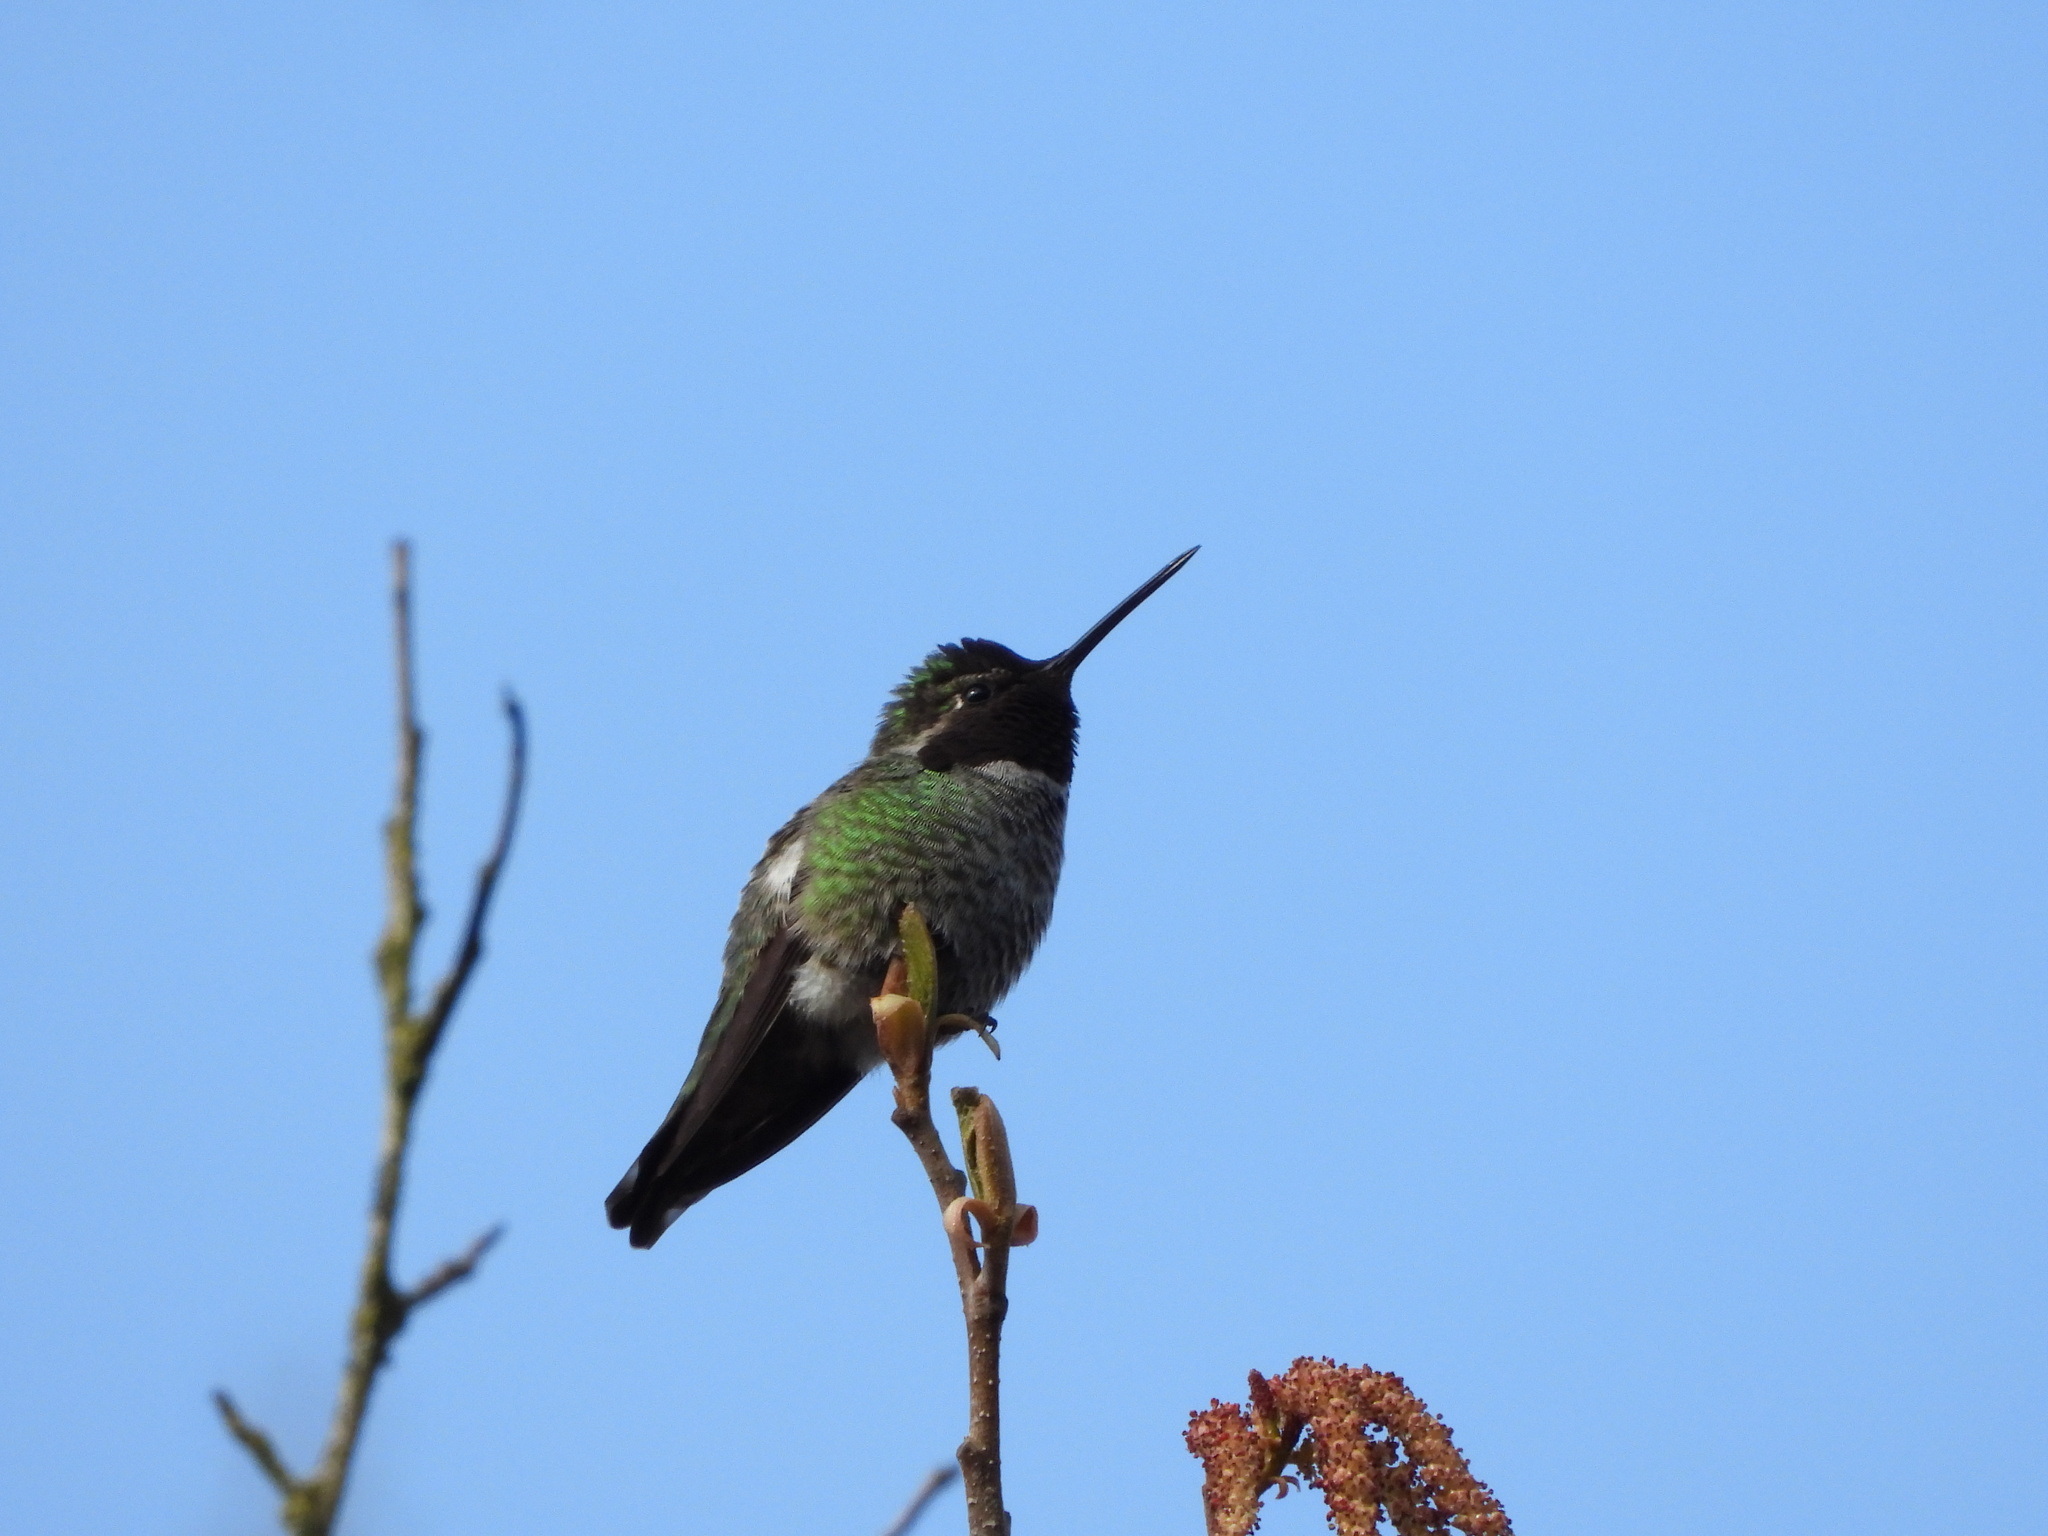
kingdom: Animalia
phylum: Chordata
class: Aves
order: Apodiformes
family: Trochilidae
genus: Calypte
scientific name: Calypte anna
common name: Anna's hummingbird
